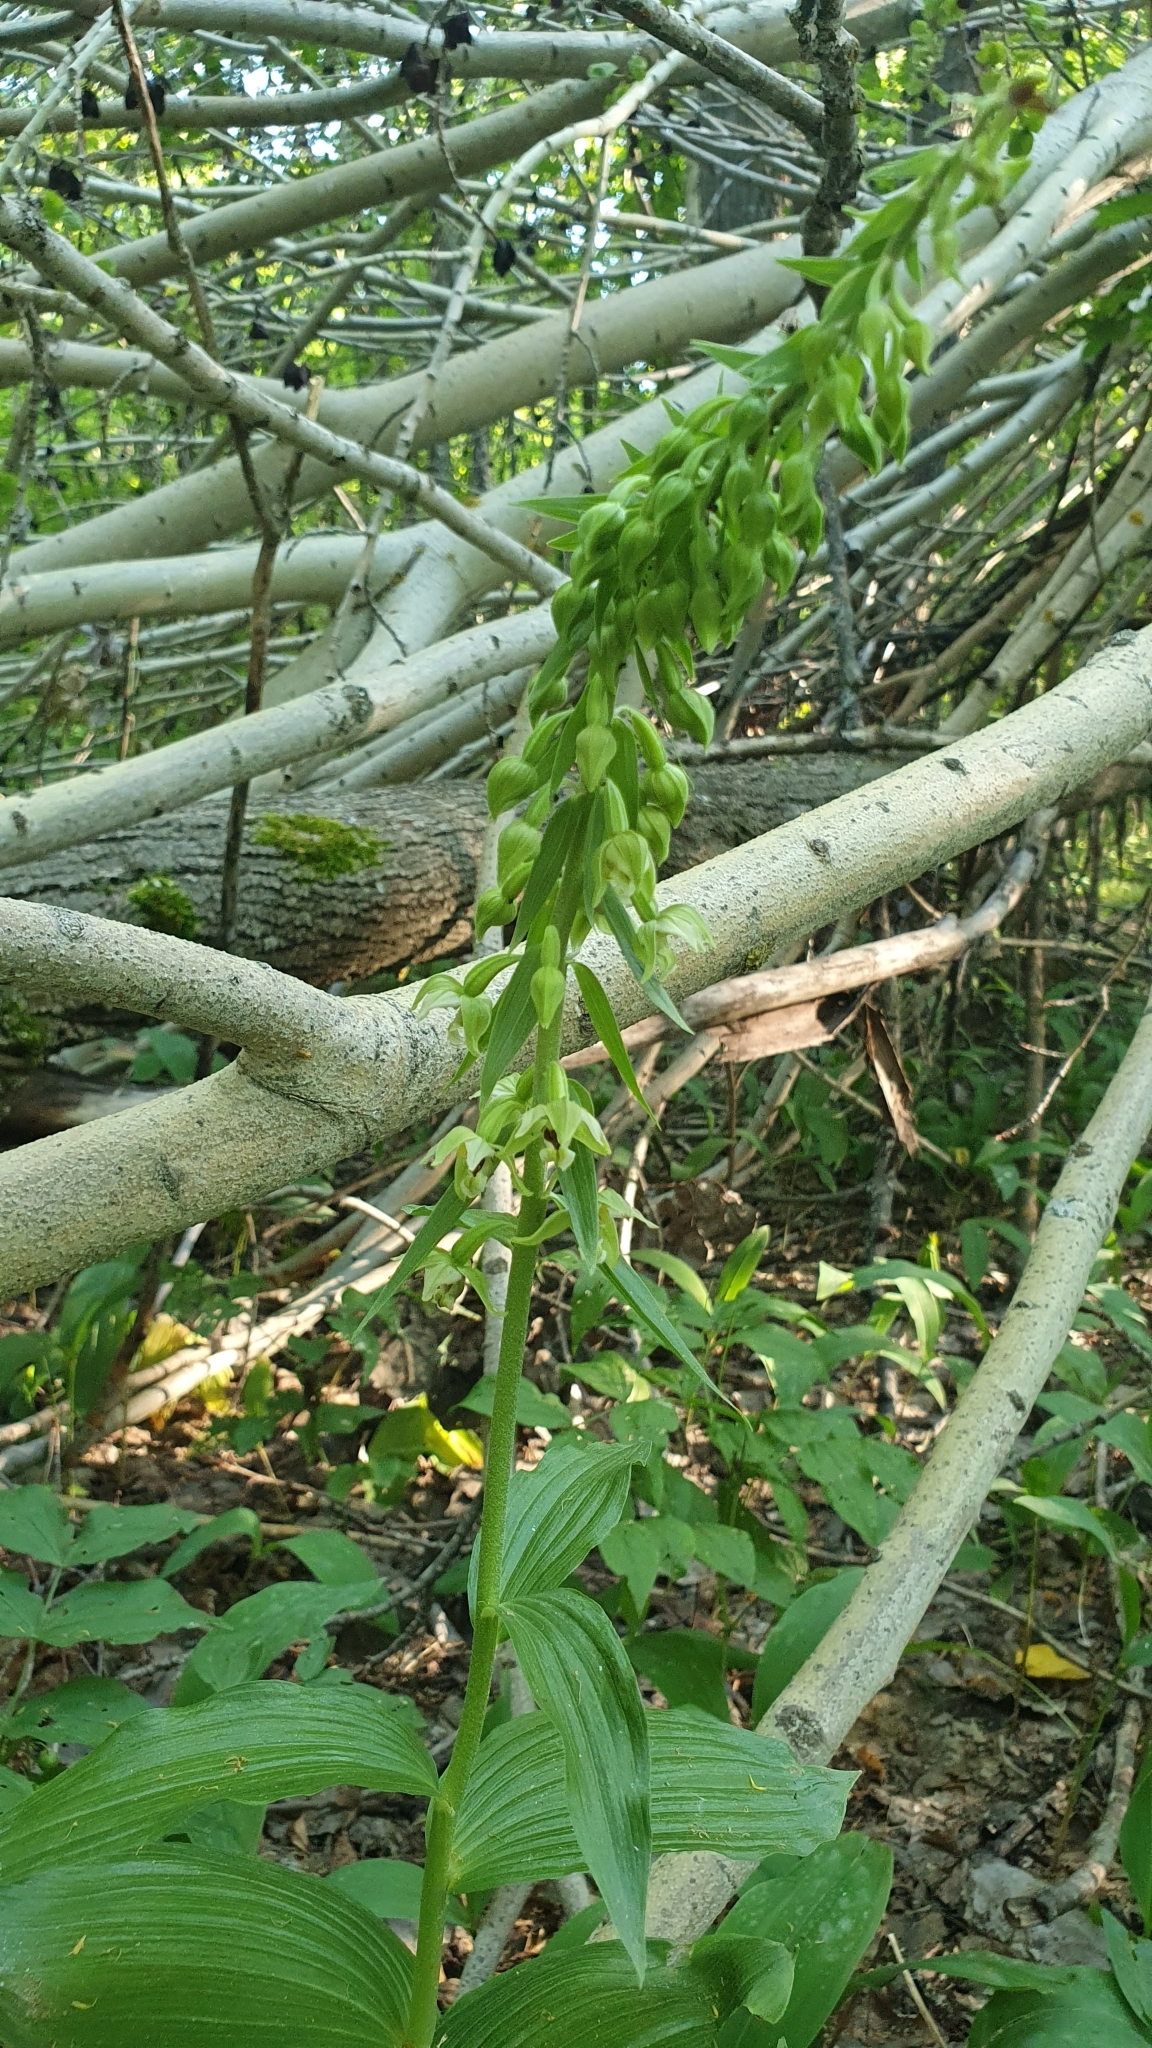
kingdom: Plantae
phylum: Tracheophyta
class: Liliopsida
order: Asparagales
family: Orchidaceae
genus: Epipactis
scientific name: Epipactis helleborine
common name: Broad-leaved helleborine
